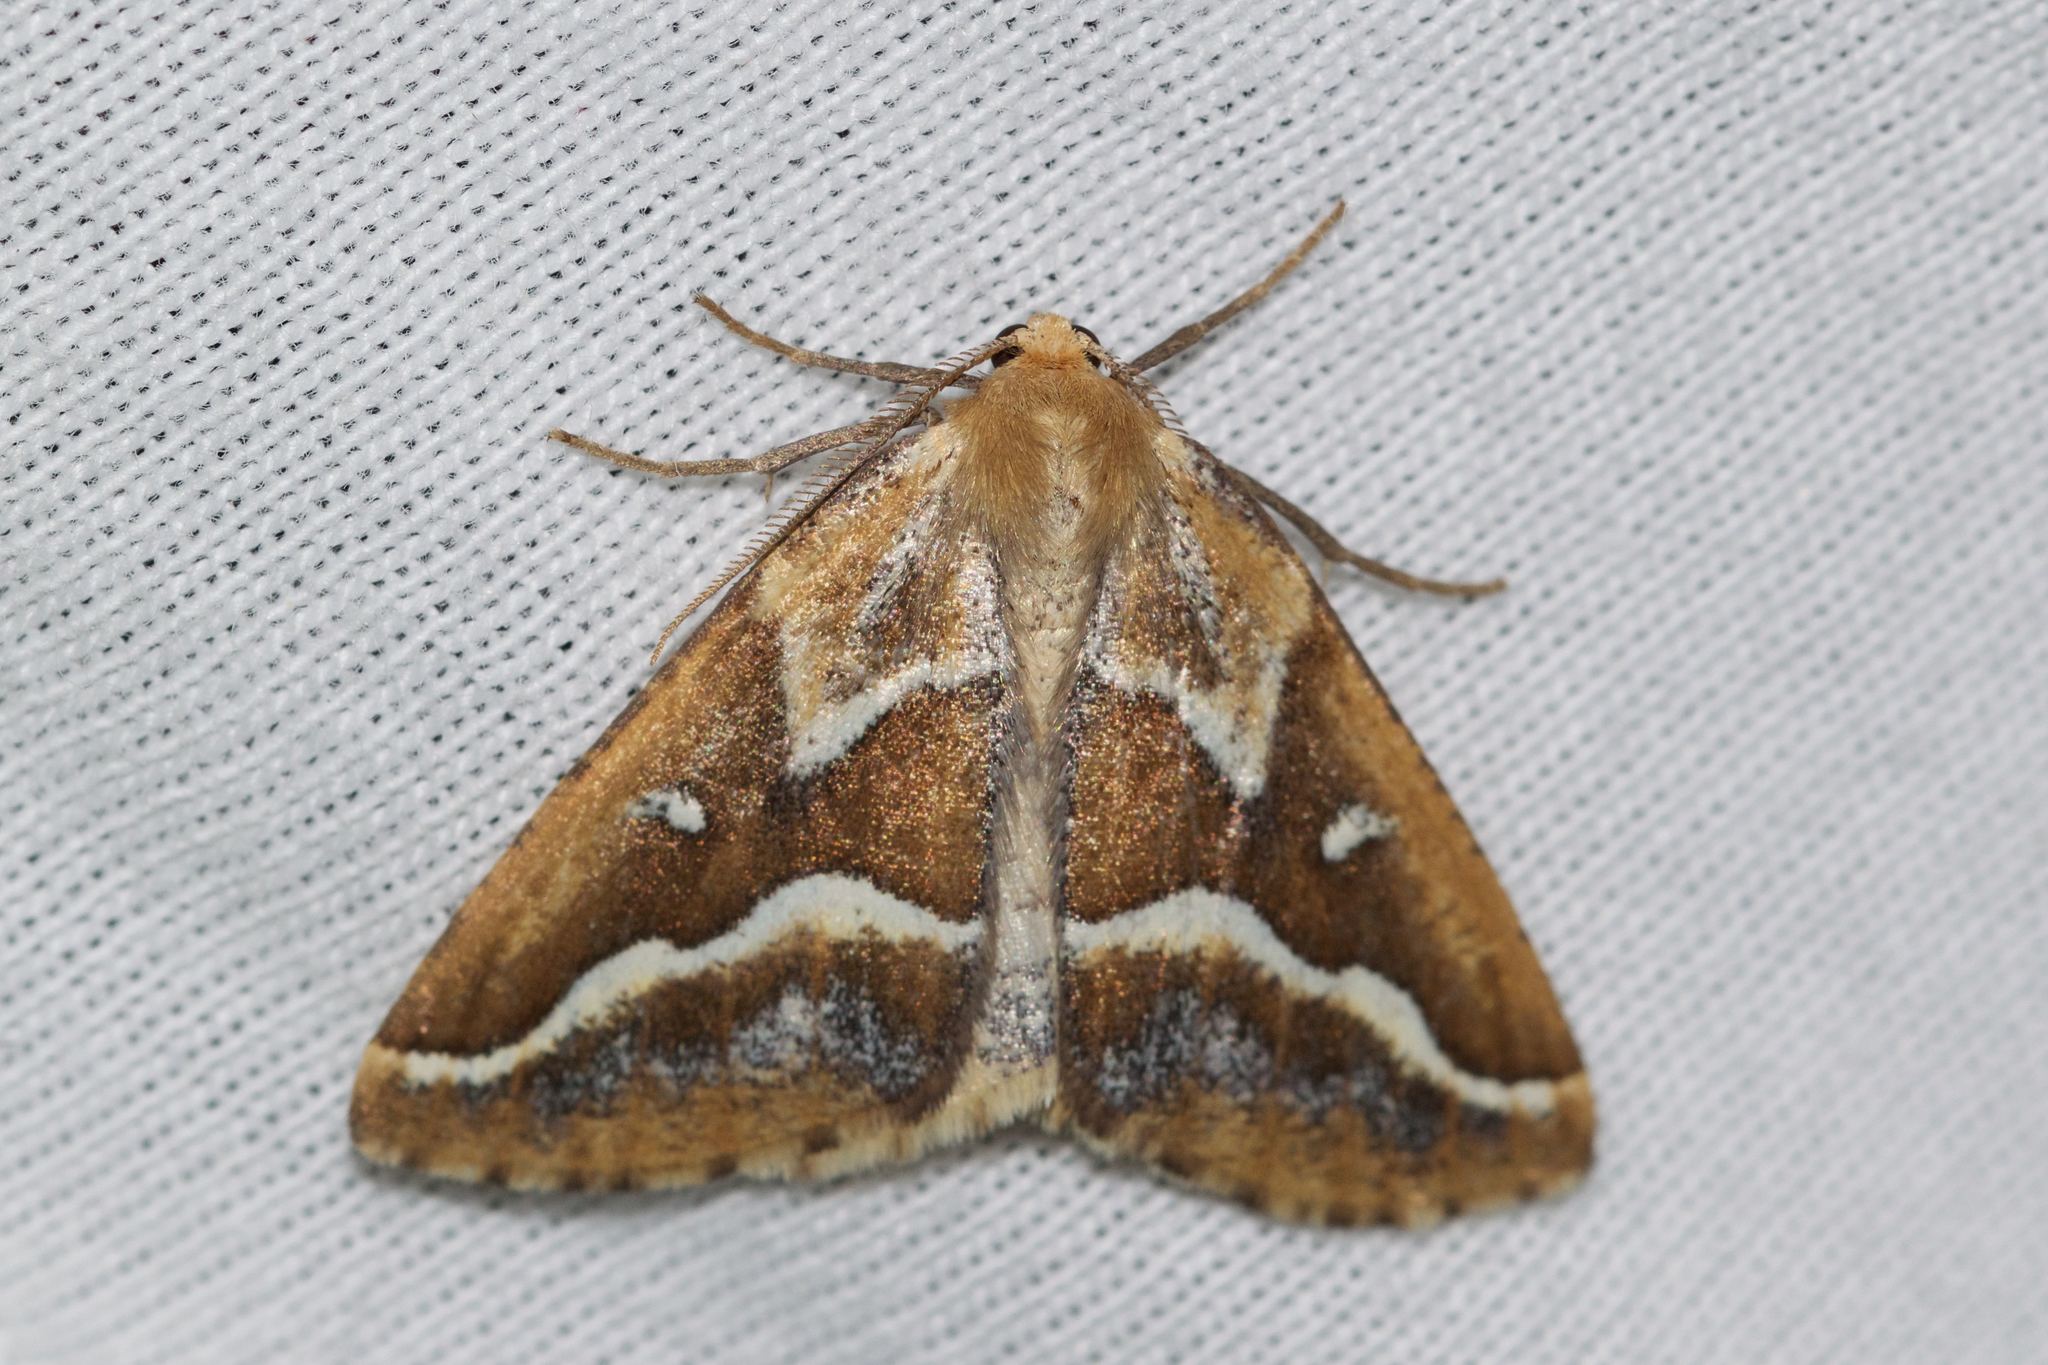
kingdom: Animalia
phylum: Arthropoda
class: Insecta
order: Lepidoptera
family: Geometridae
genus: Caripeta
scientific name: Caripeta angustiorata
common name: Brown pine looper
